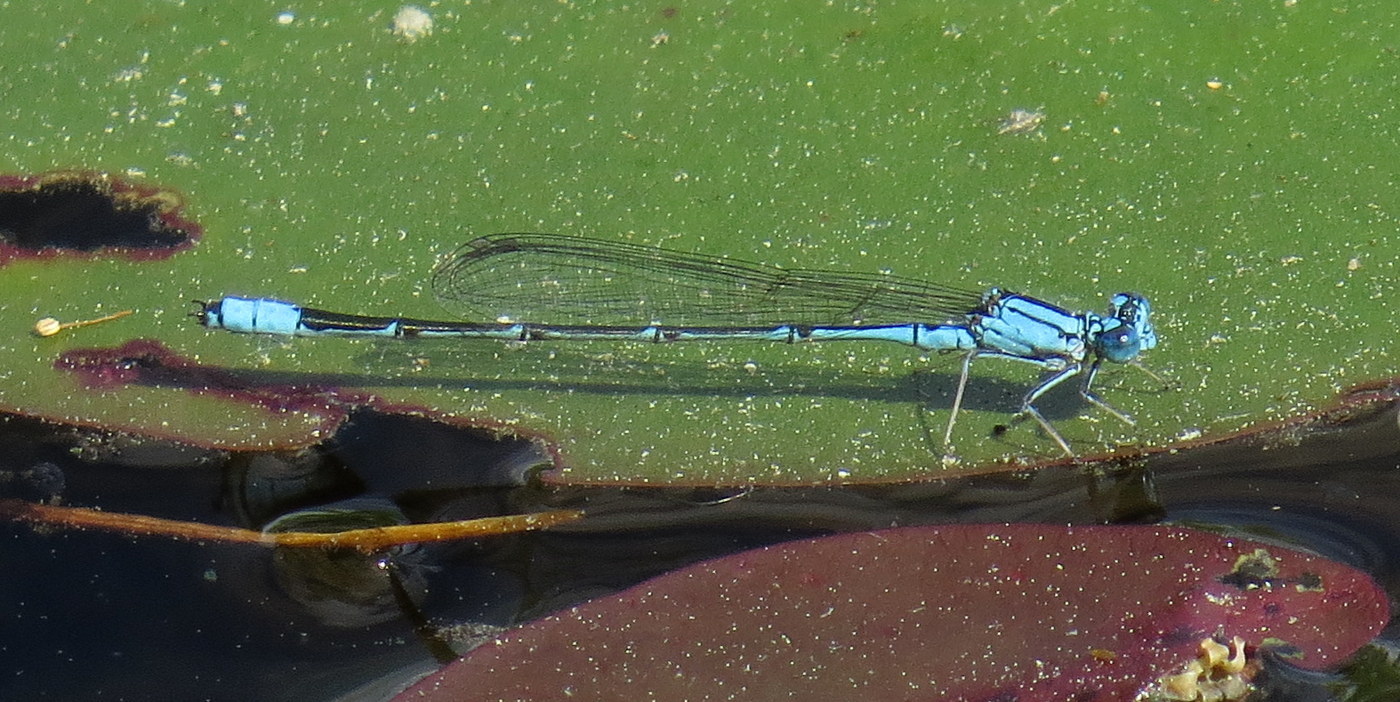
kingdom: Animalia
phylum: Arthropoda
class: Insecta
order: Odonata
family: Coenagrionidae
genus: Enallagma
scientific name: Enallagma traviatum
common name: Slender bluet
